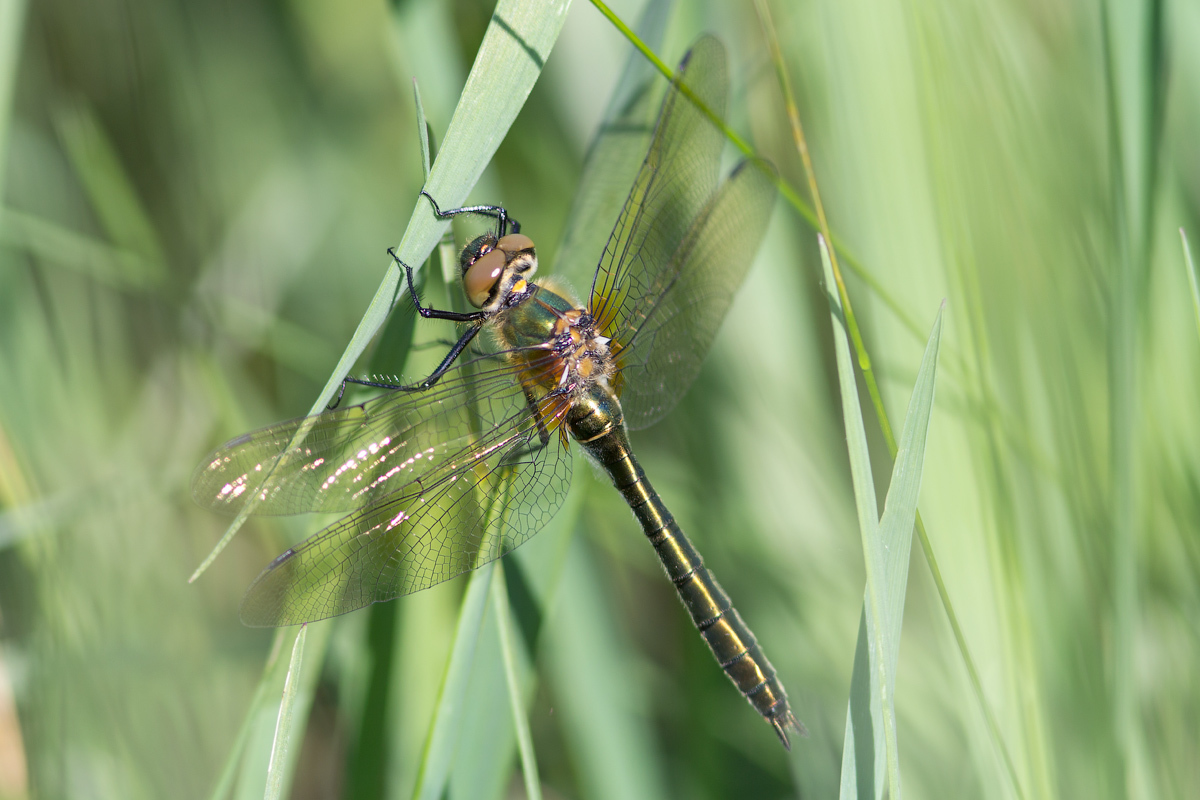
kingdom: Animalia
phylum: Arthropoda
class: Insecta
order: Odonata
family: Corduliidae
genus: Cordulia
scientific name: Cordulia aenea
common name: Downy emerald
